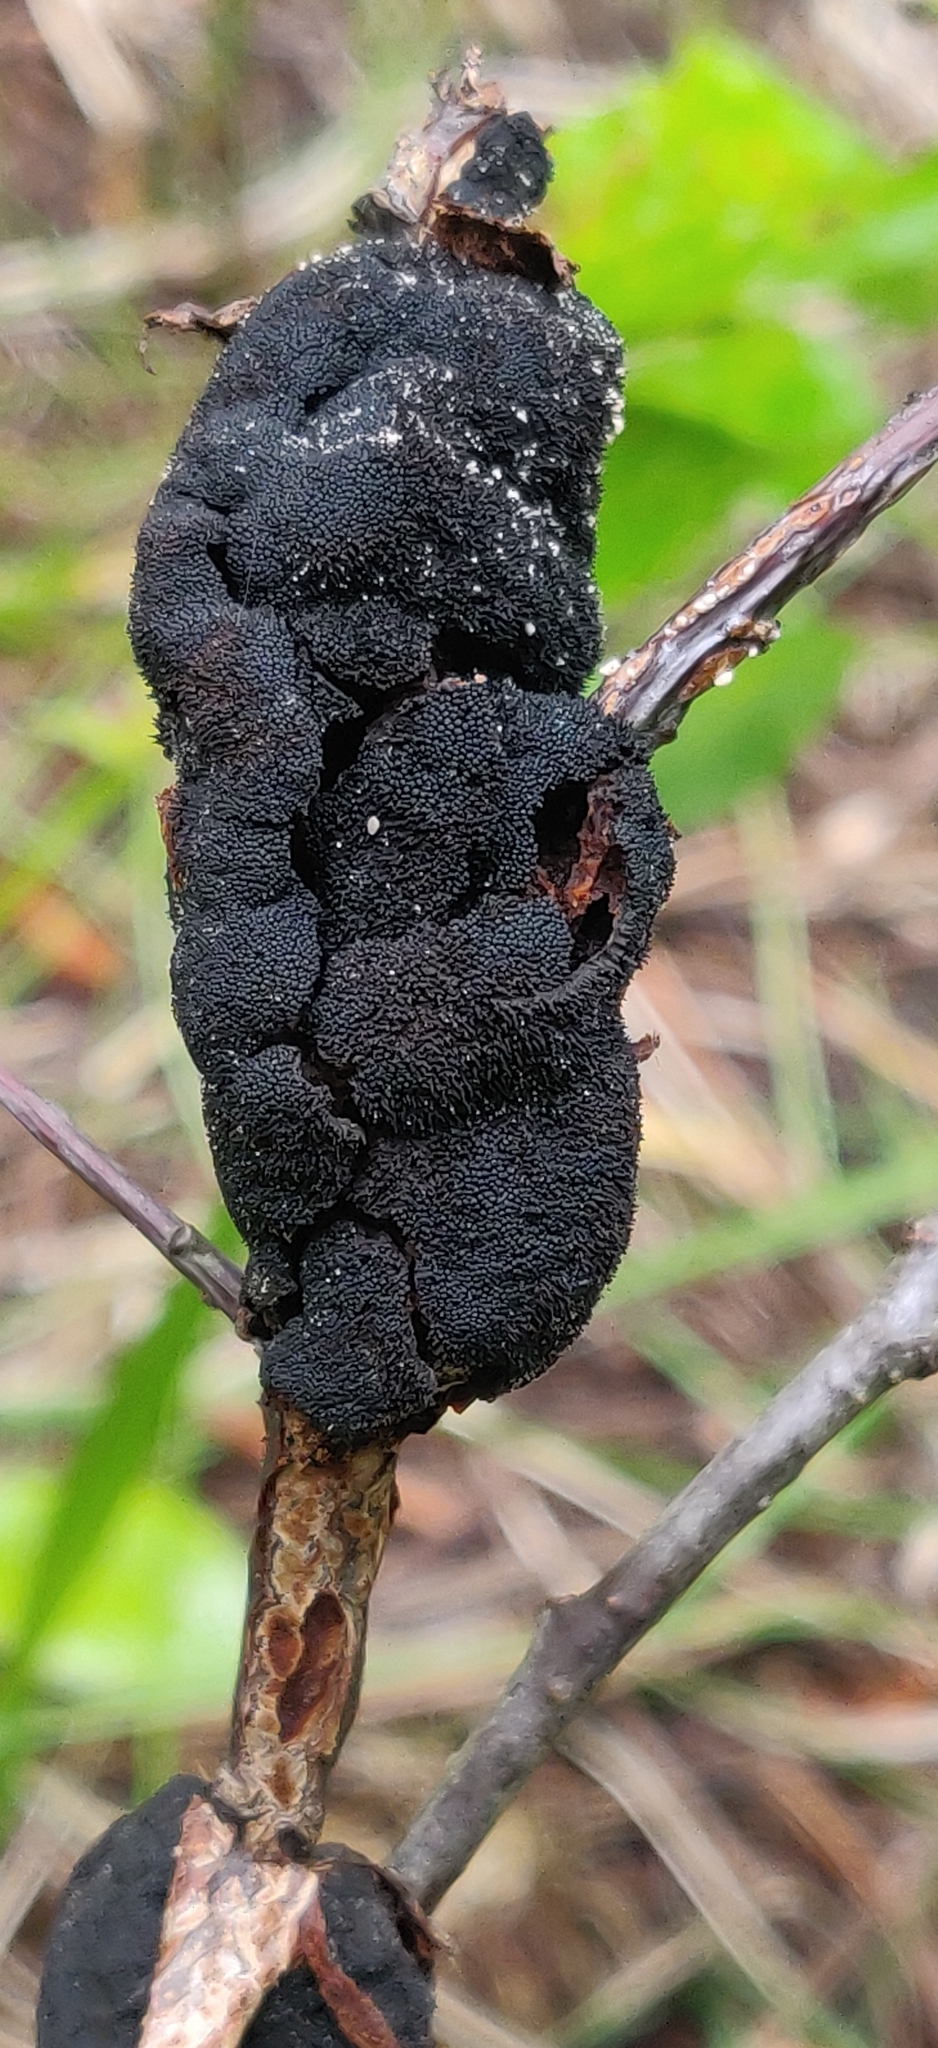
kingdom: Fungi
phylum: Ascomycota
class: Dothideomycetes
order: Venturiales
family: Venturiaceae
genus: Apiosporina
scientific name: Apiosporina morbosa
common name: Black knot
